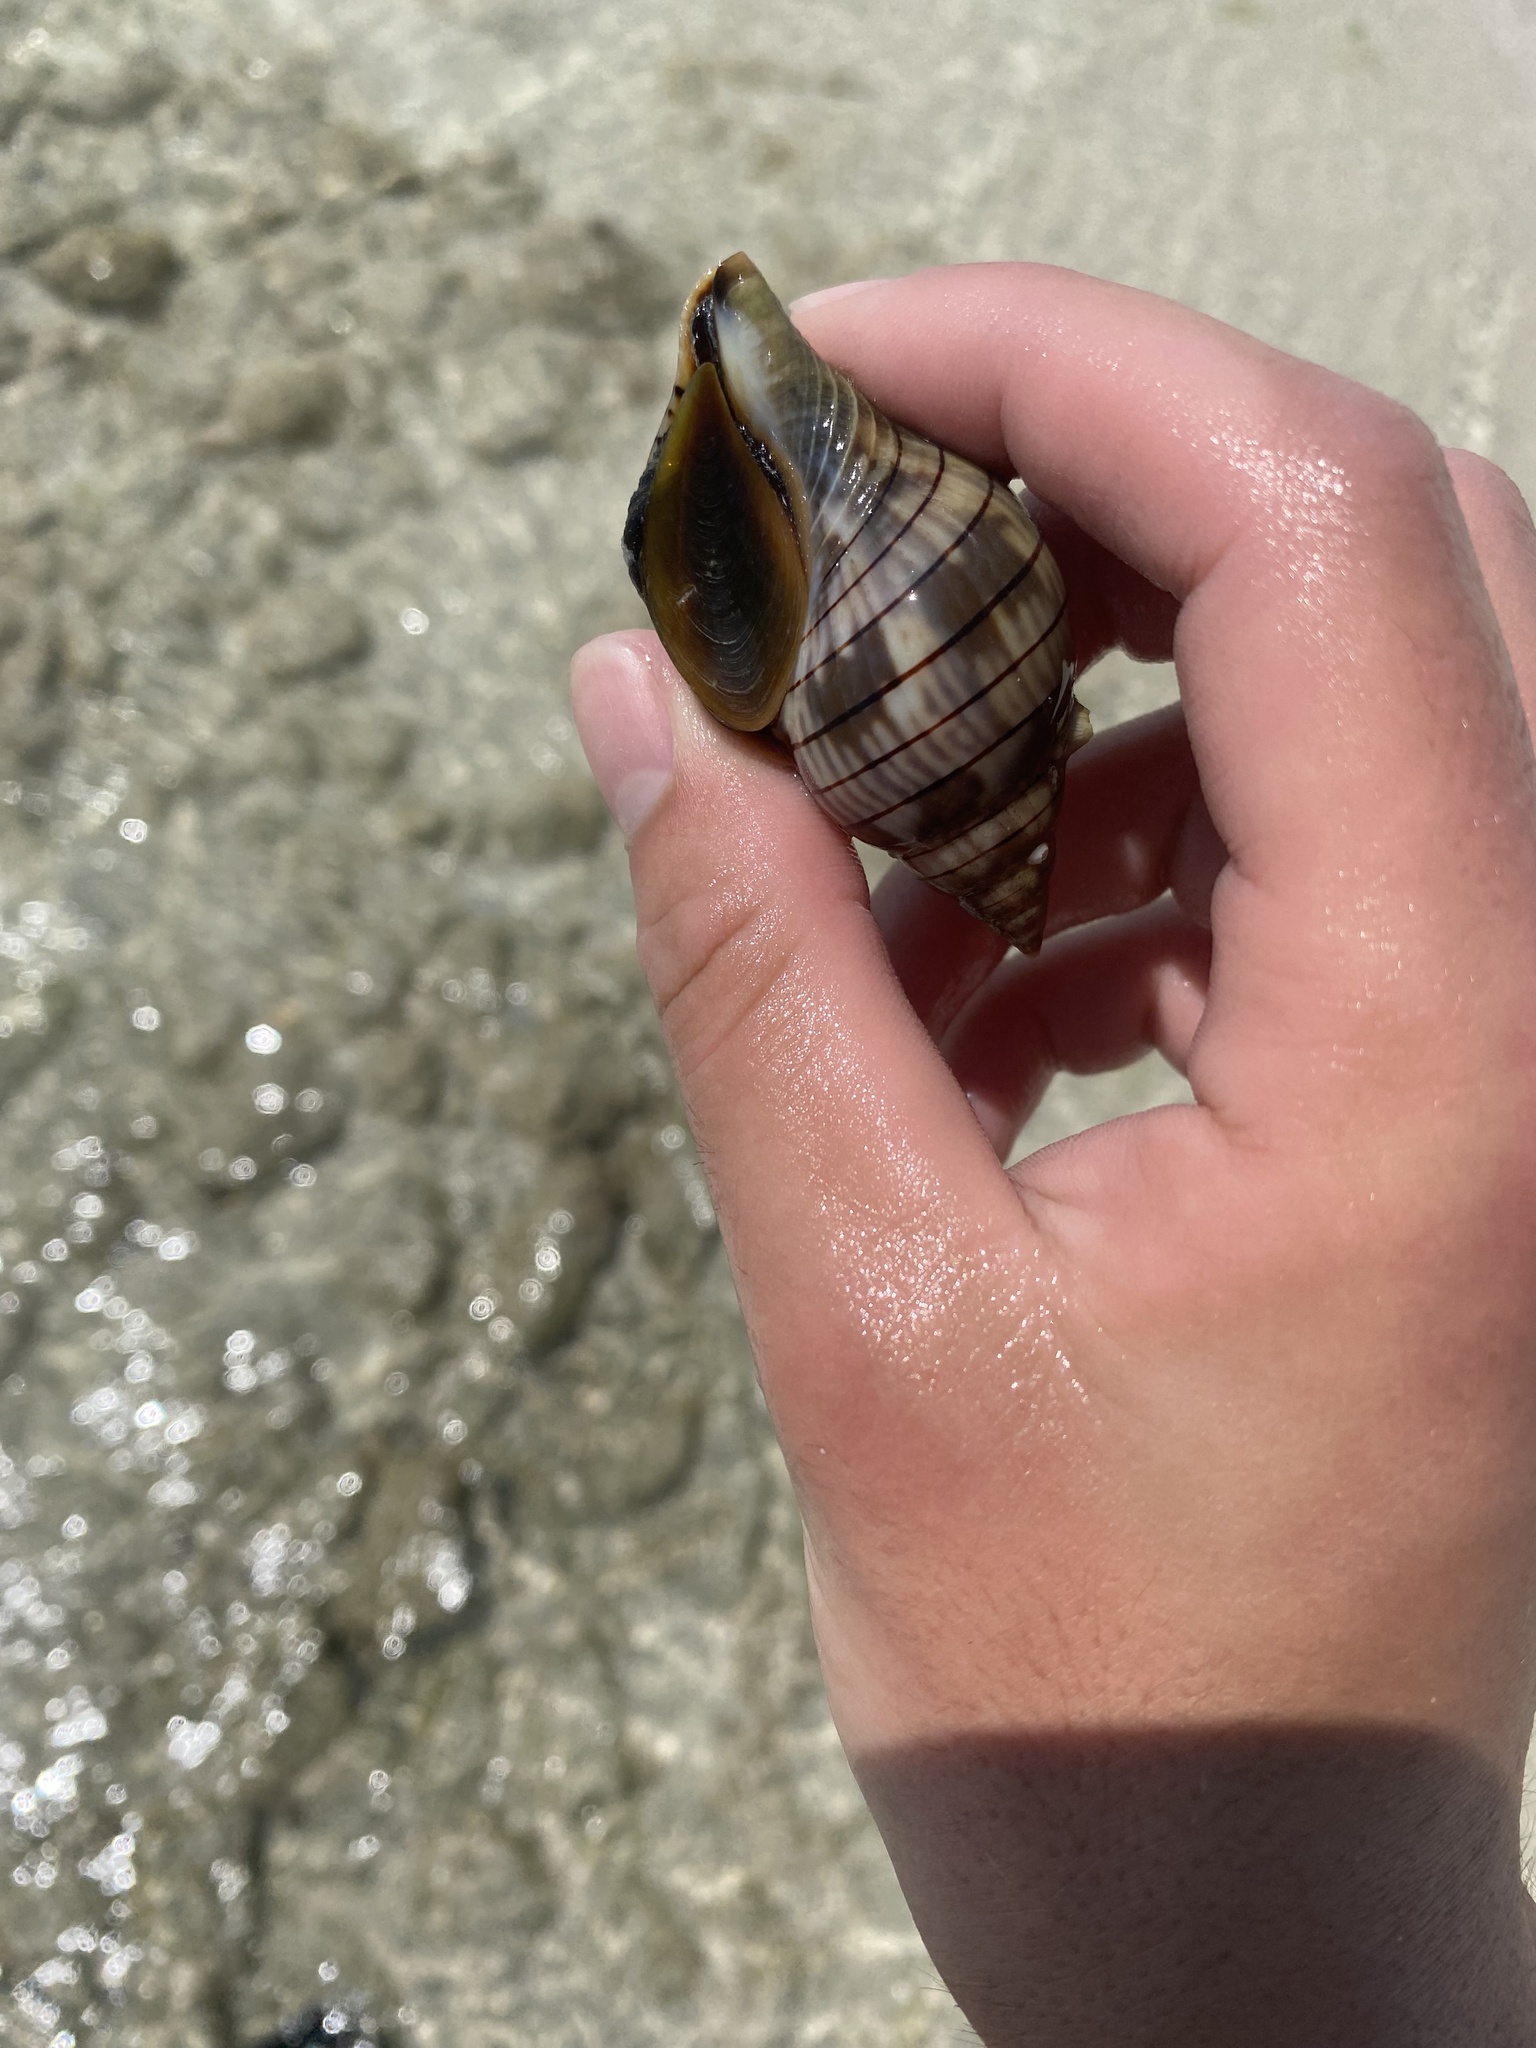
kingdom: Animalia
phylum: Mollusca
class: Gastropoda
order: Neogastropoda
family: Fasciolariidae
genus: Cinctura
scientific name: Cinctura hunteria
